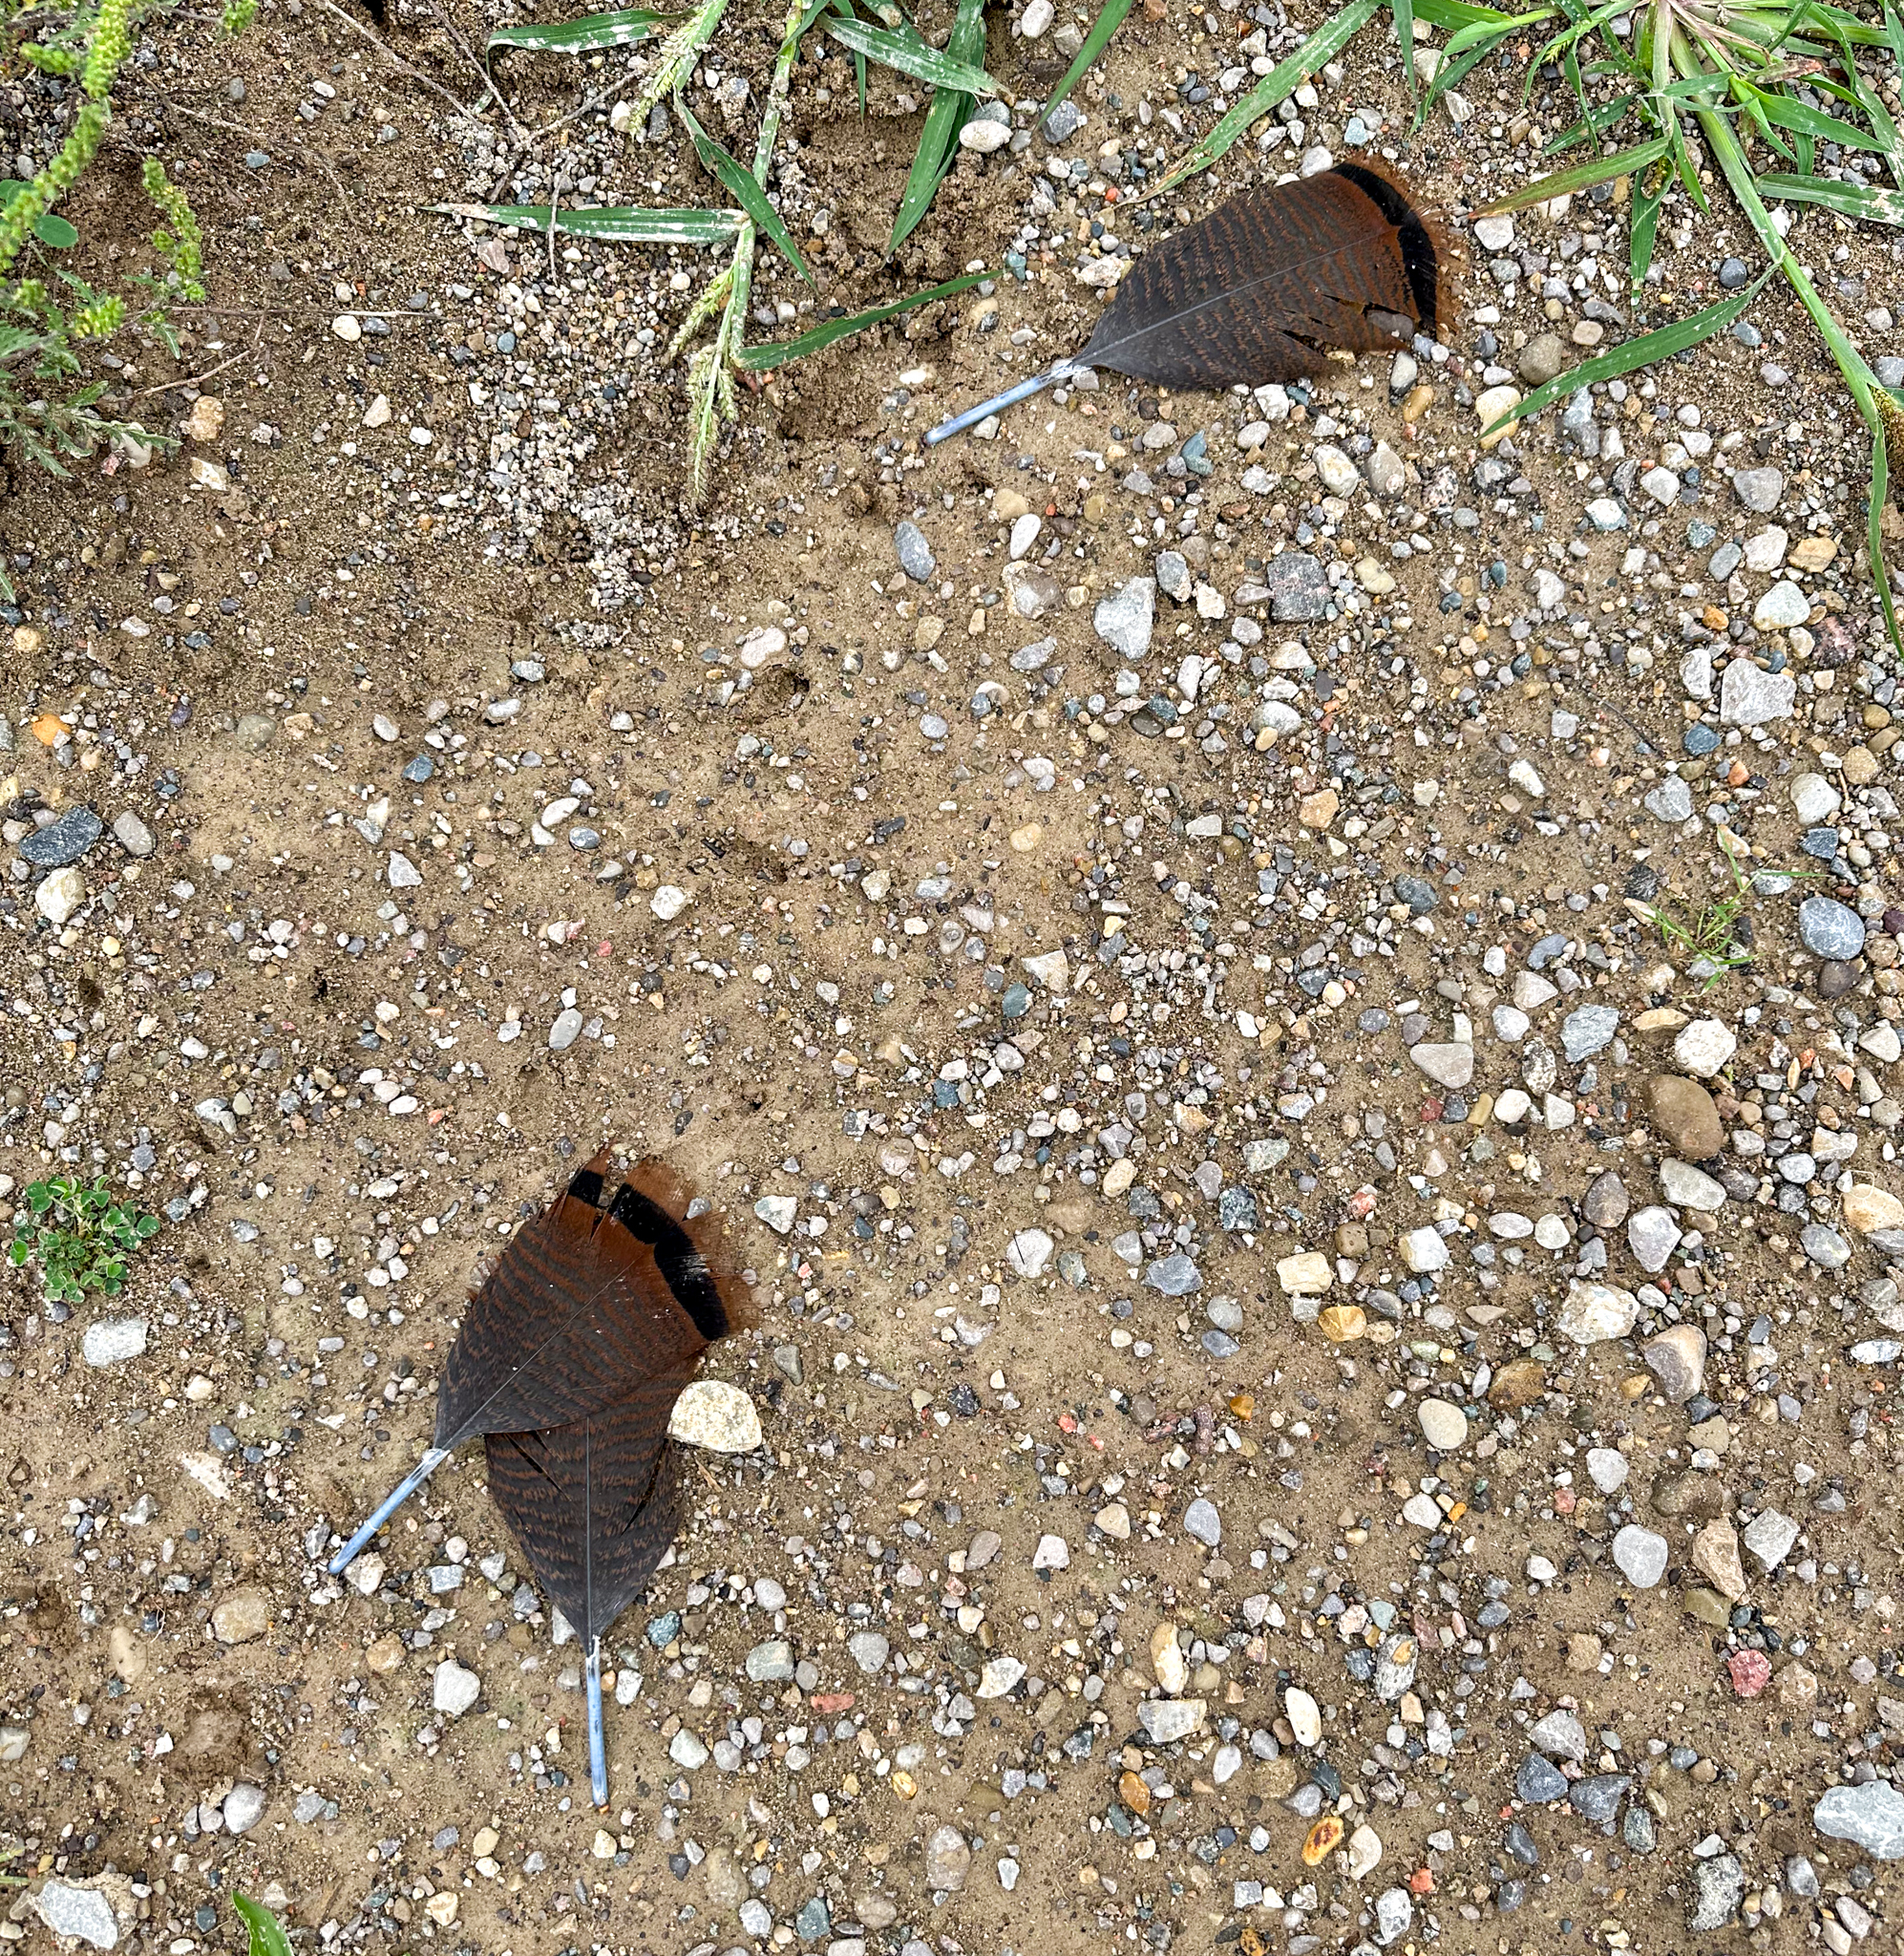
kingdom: Animalia
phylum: Chordata
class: Aves
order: Galliformes
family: Phasianidae
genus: Meleagris
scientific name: Meleagris gallopavo
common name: Wild turkey
